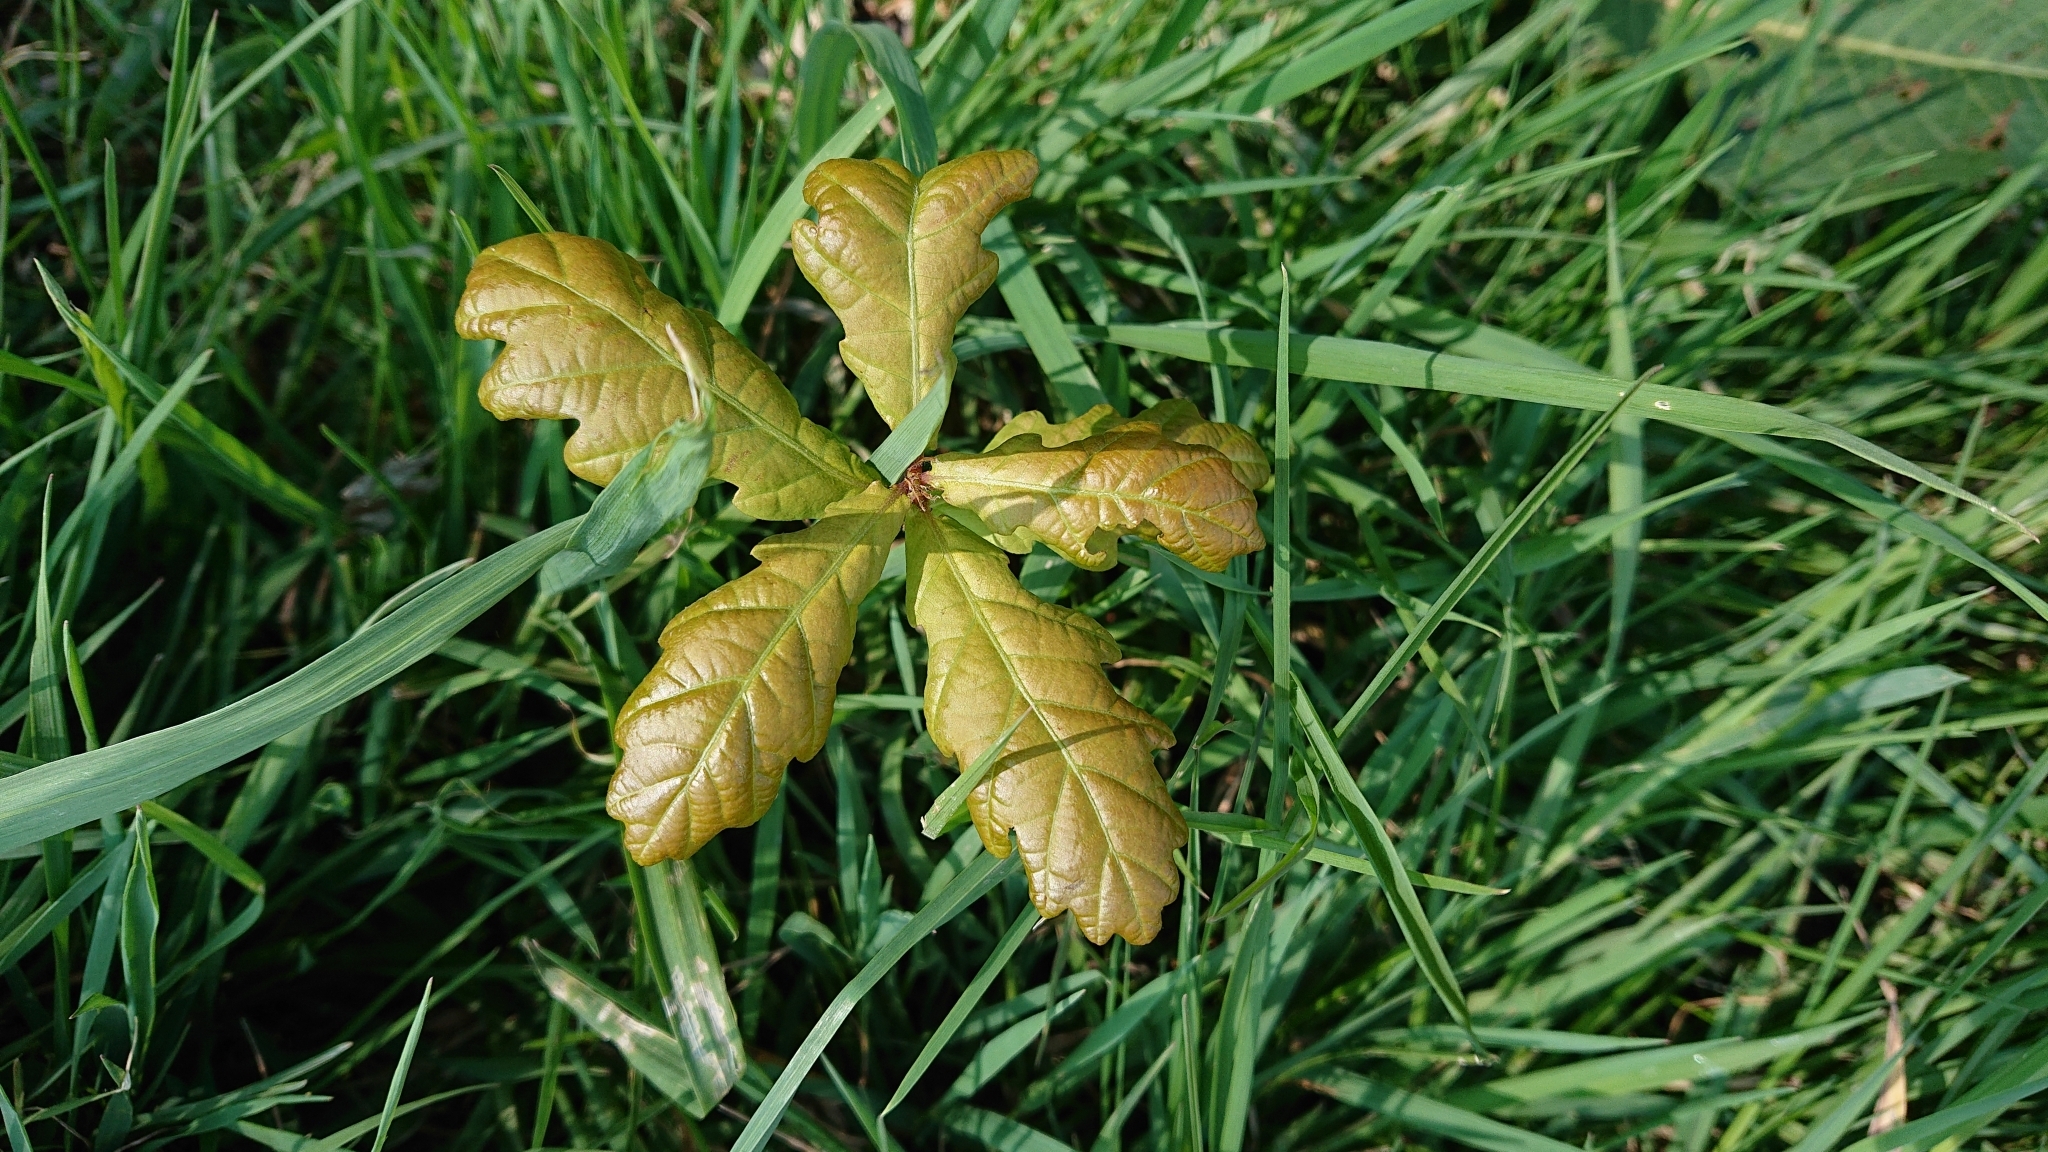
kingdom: Plantae
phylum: Tracheophyta
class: Magnoliopsida
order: Fagales
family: Fagaceae
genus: Quercus
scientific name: Quercus robur
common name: Pedunculate oak
